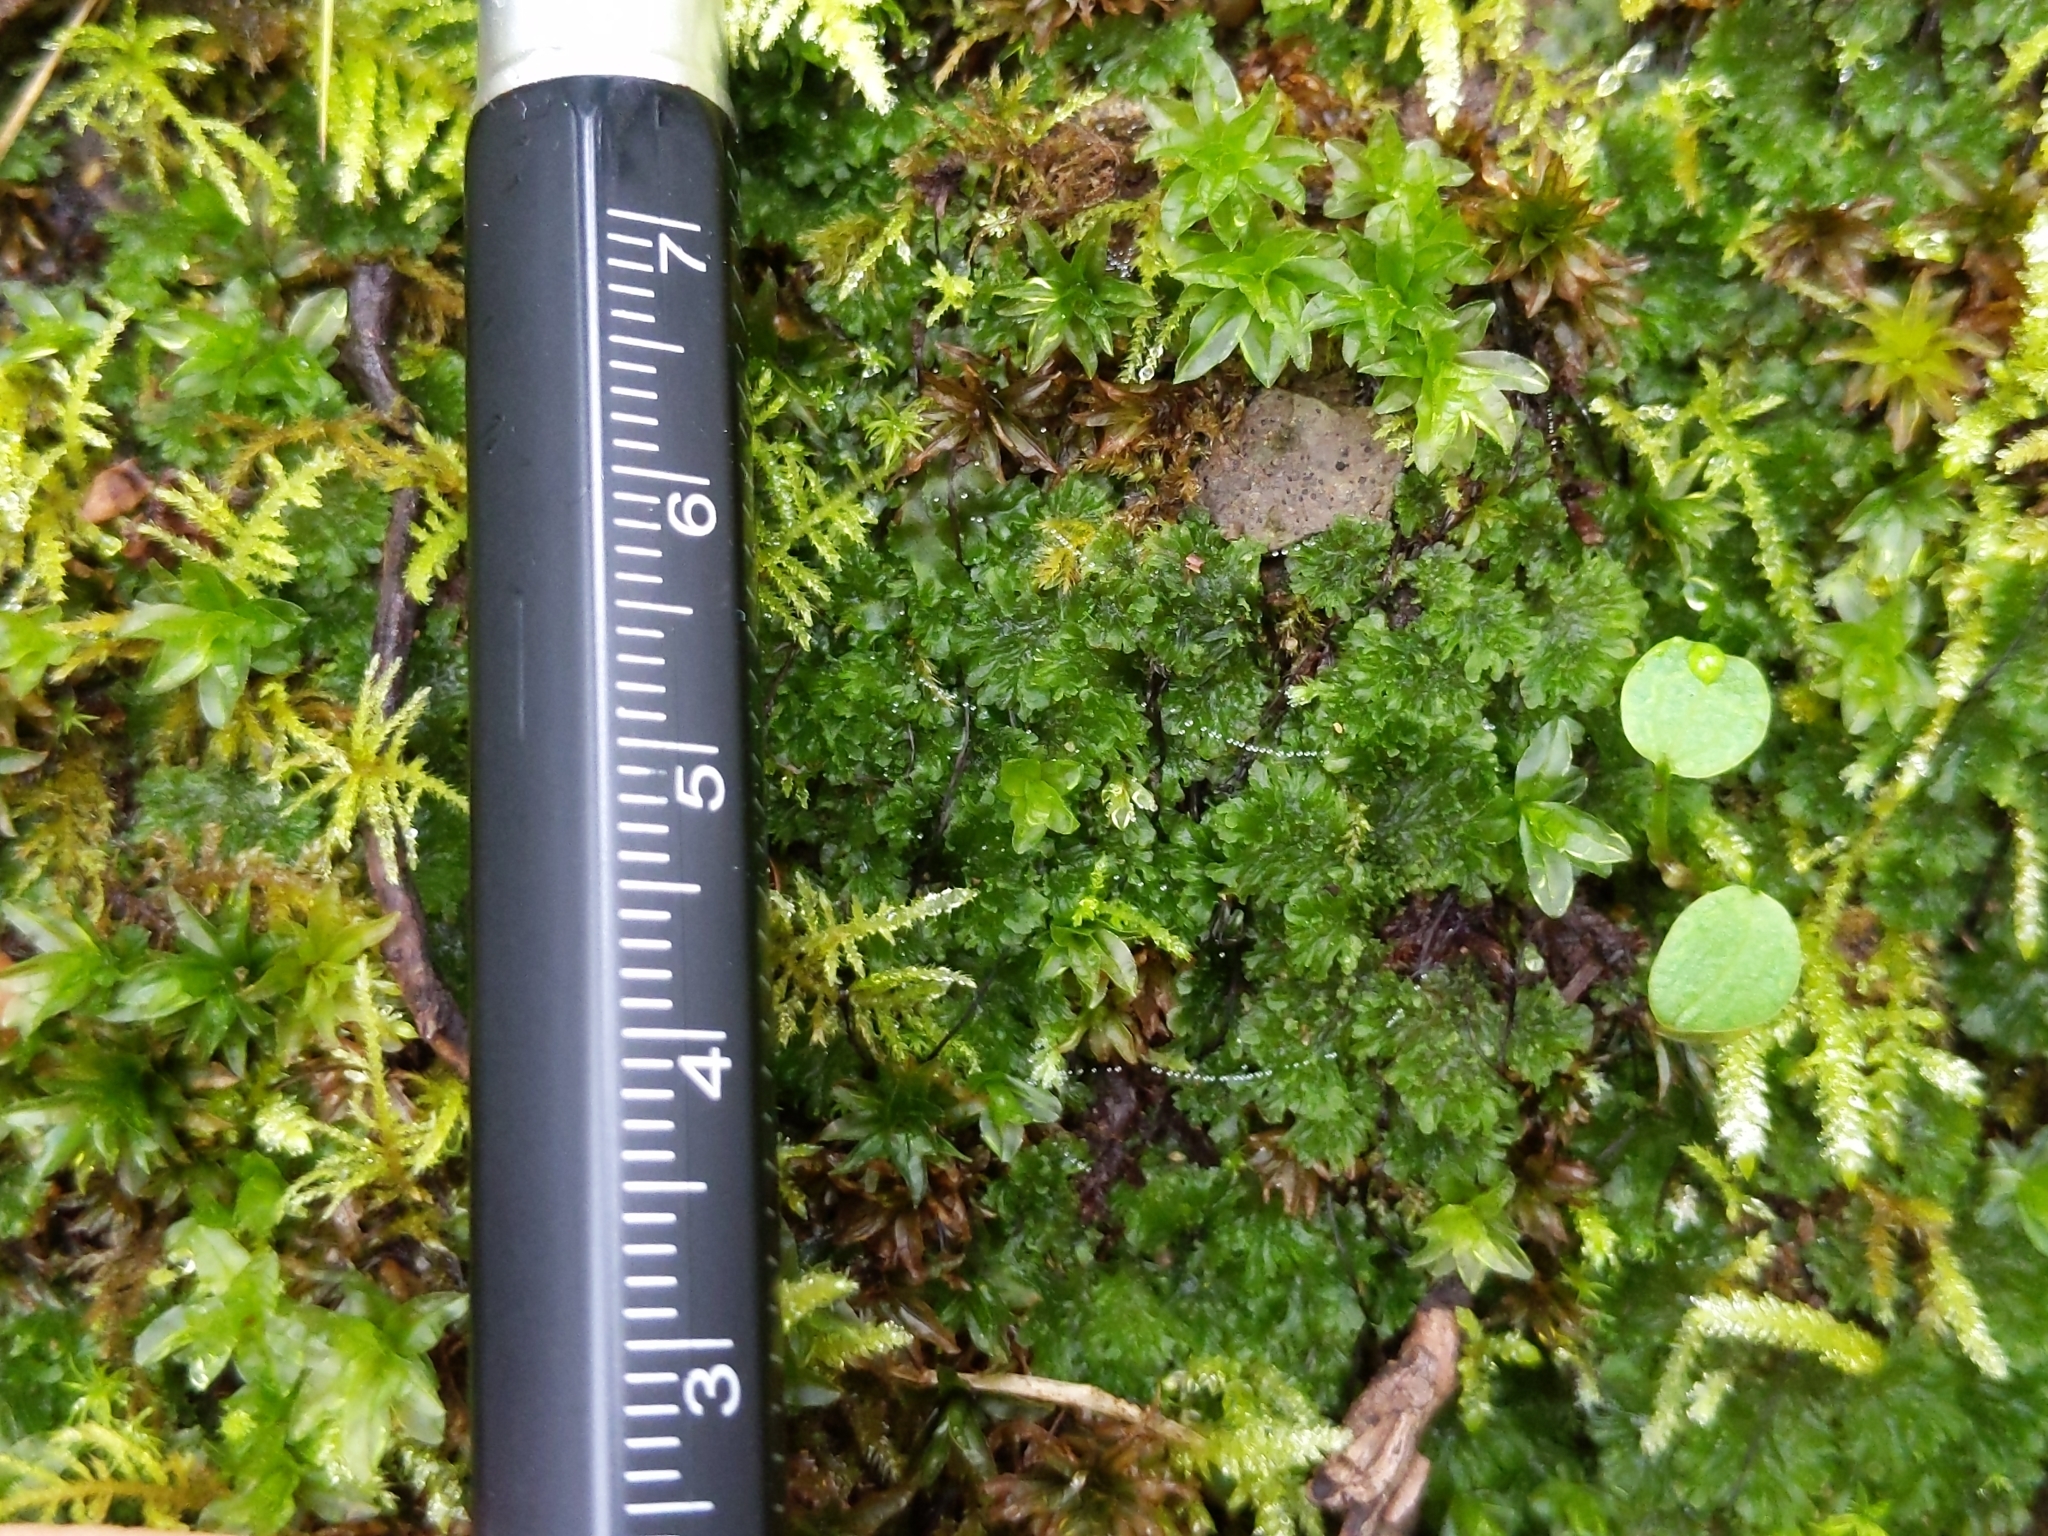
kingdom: Plantae
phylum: Anthocerotophyta
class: Anthocerotopsida
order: Anthocerotales
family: Anthocerotaceae
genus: Anthoceros
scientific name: Anthoceros fusiformis
